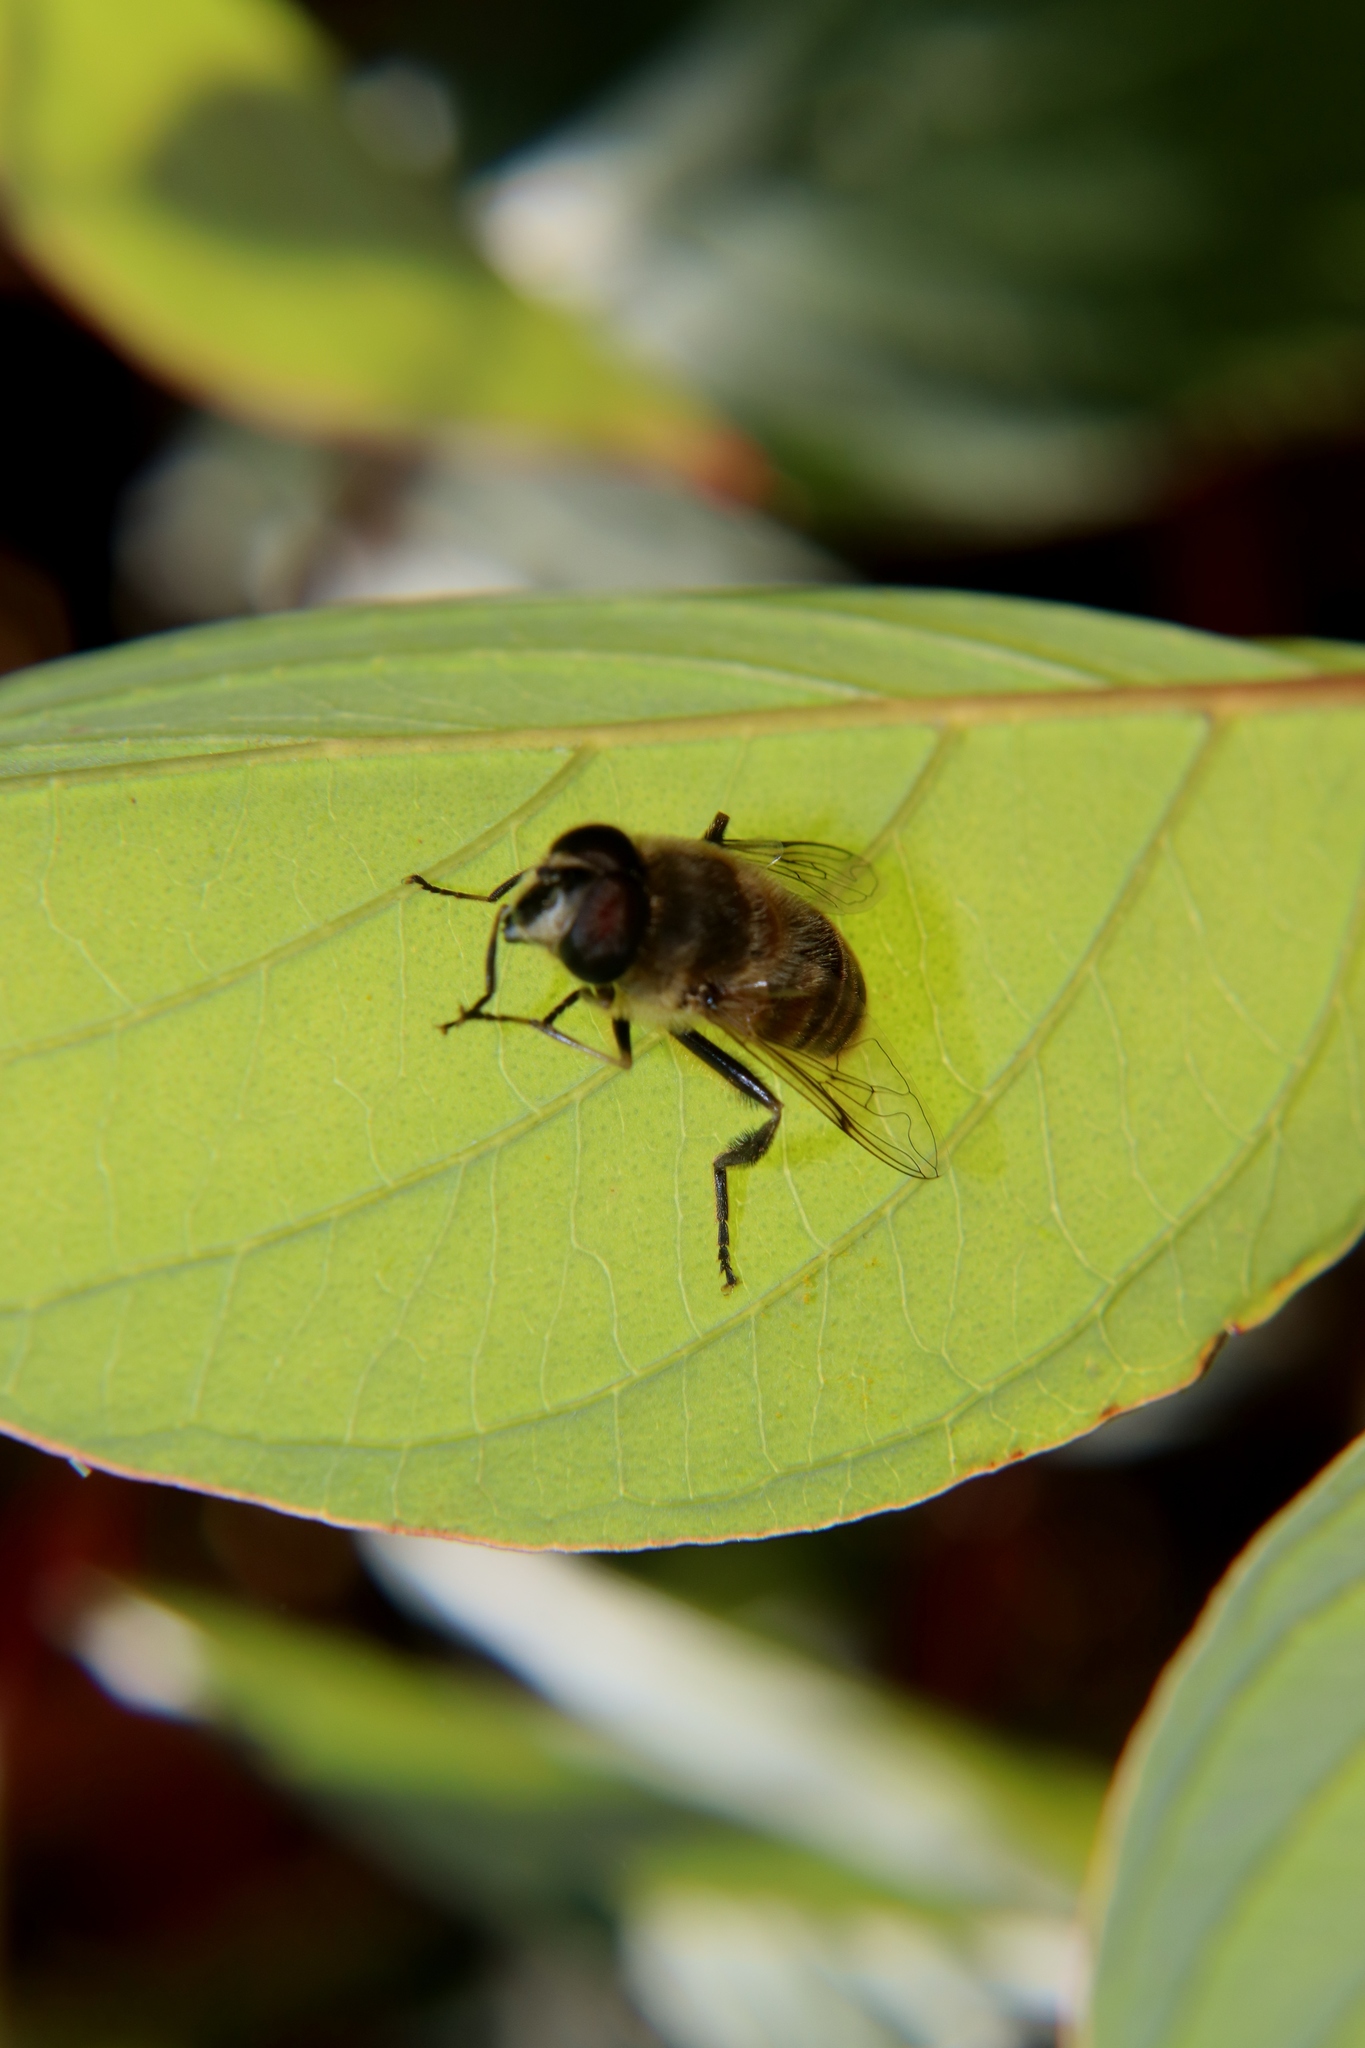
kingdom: Animalia
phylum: Arthropoda
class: Insecta
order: Diptera
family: Syrphidae
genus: Eristalis
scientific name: Eristalis tenax
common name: Drone fly
